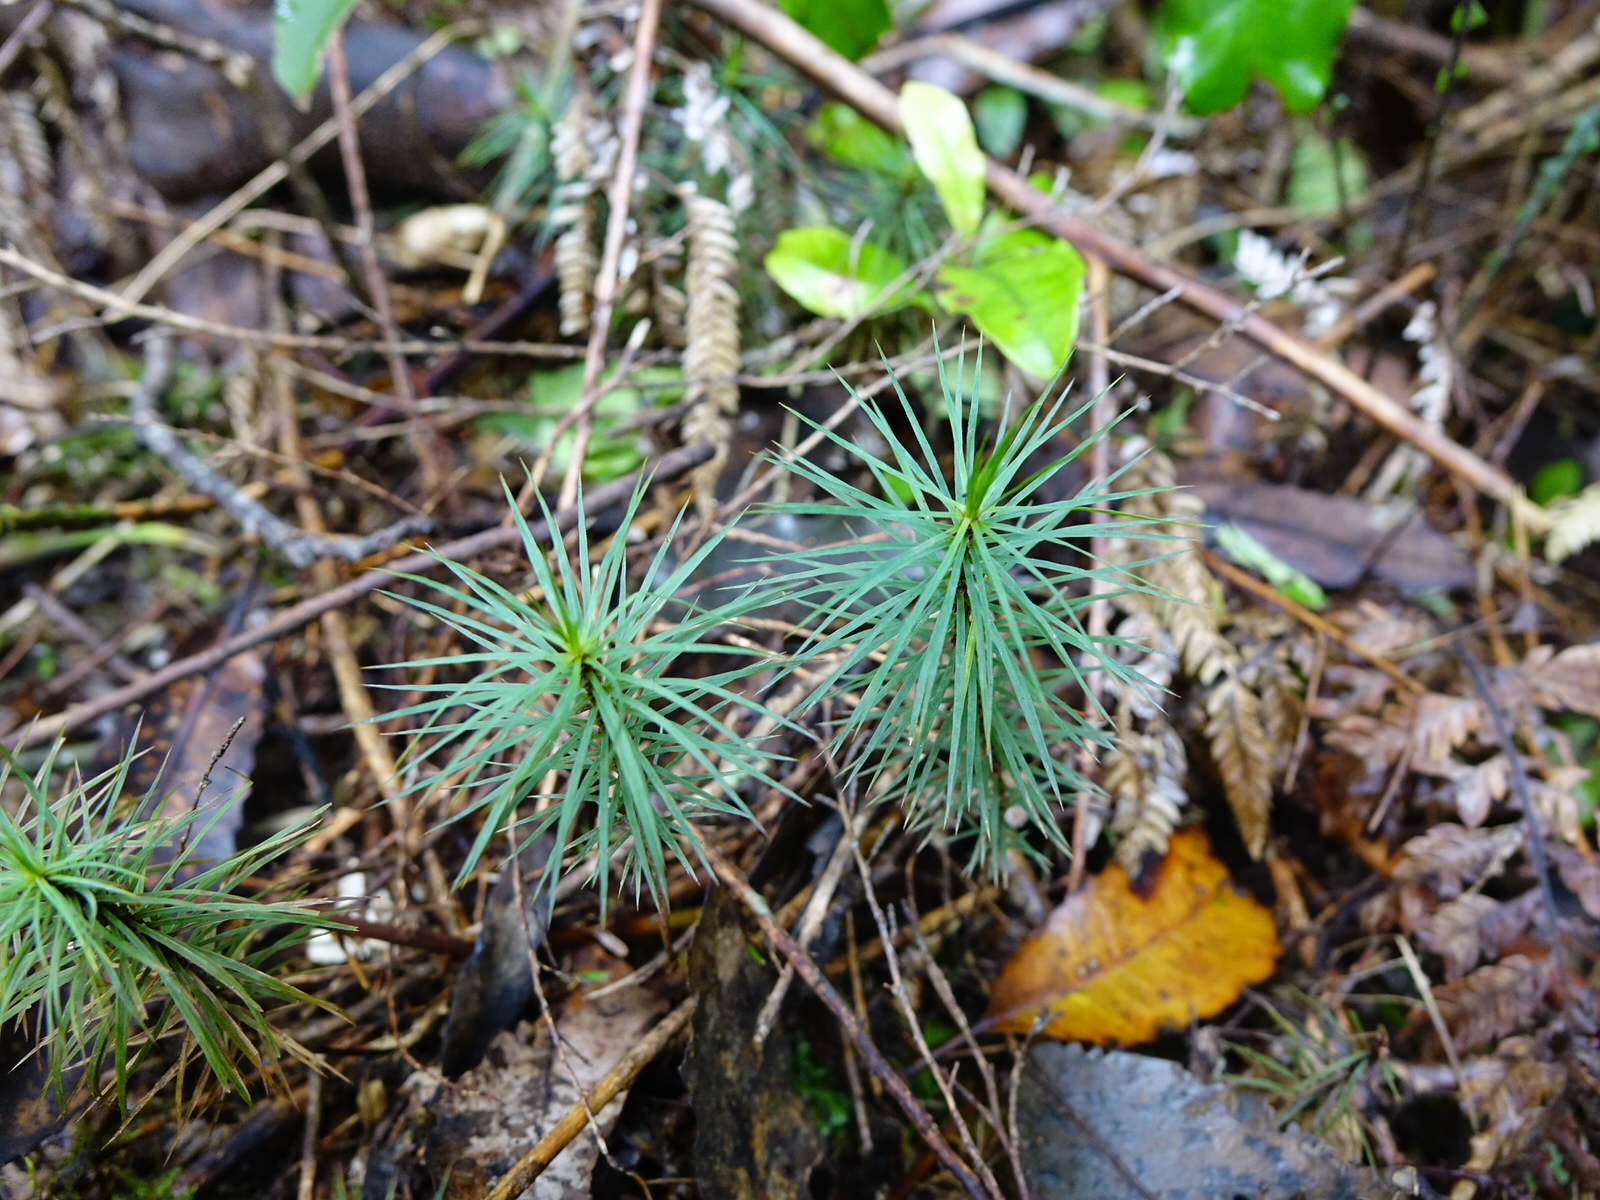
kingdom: Plantae
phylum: Bryophyta
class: Polytrichopsida
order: Polytrichales
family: Polytrichaceae
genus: Dawsonia
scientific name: Dawsonia superba
